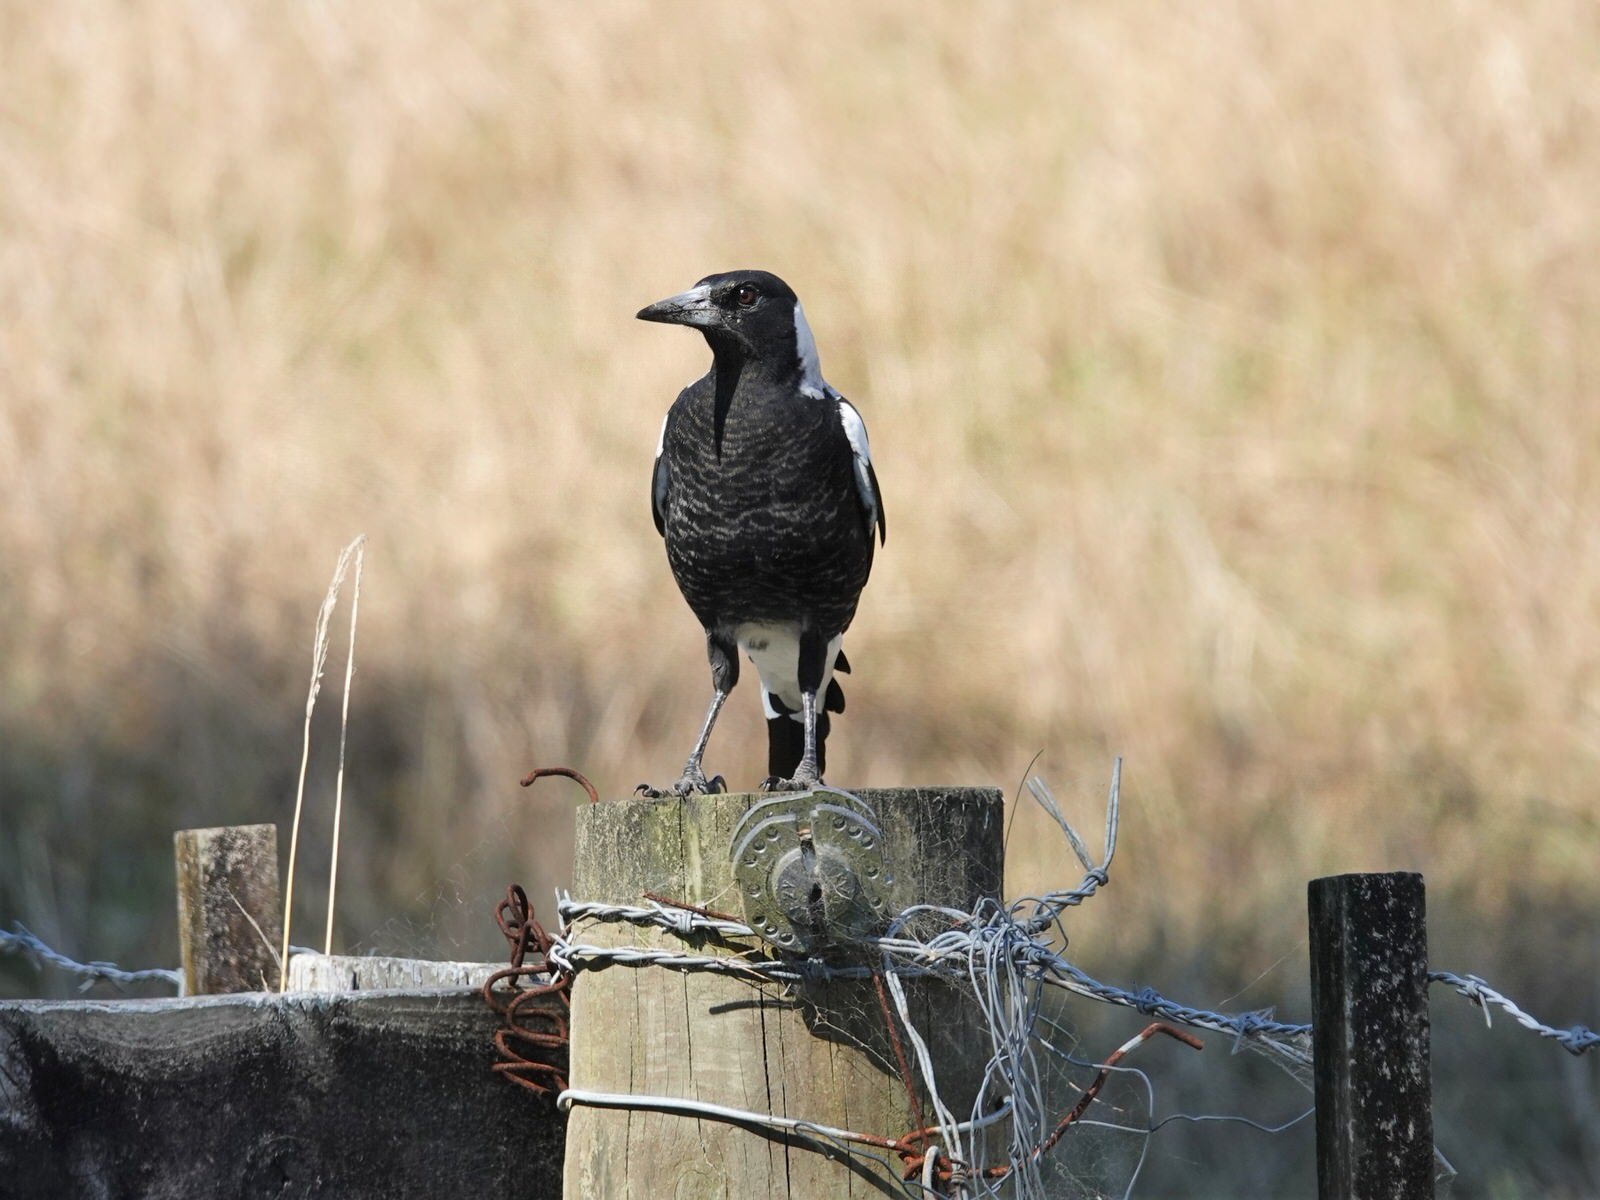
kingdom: Animalia
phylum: Chordata
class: Aves
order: Passeriformes
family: Cracticidae
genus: Gymnorhina
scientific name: Gymnorhina tibicen
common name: Australian magpie
